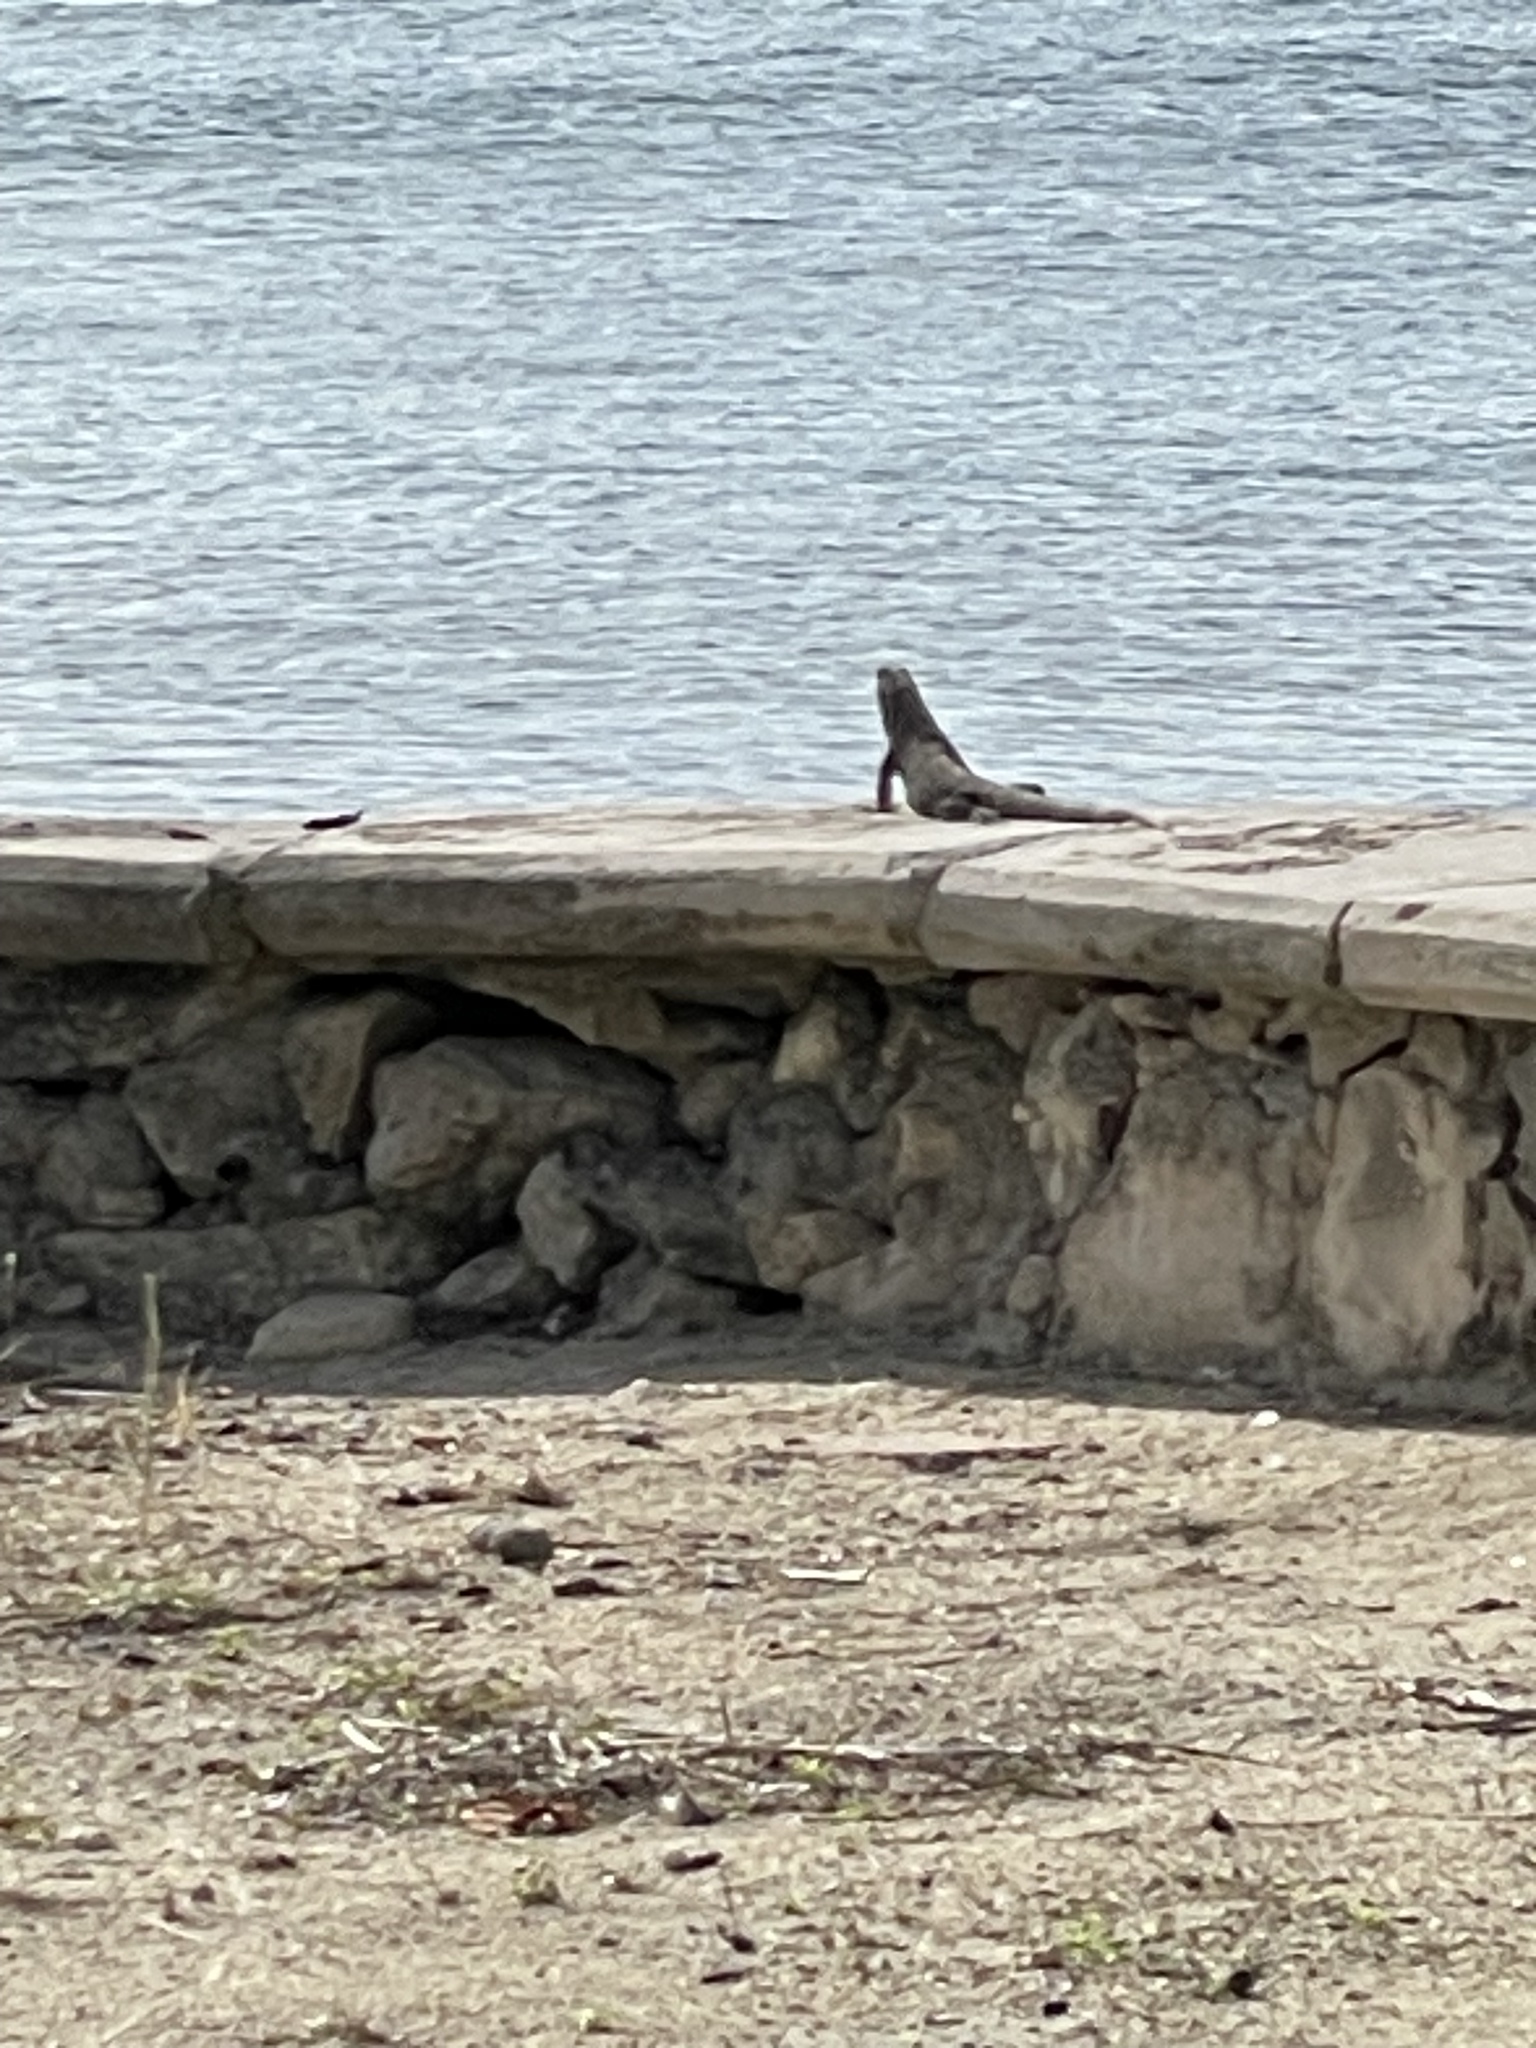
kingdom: Animalia
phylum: Chordata
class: Squamata
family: Iguanidae
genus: Ctenosaura
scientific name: Ctenosaura similis
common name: Black spiny-tailed iguana
